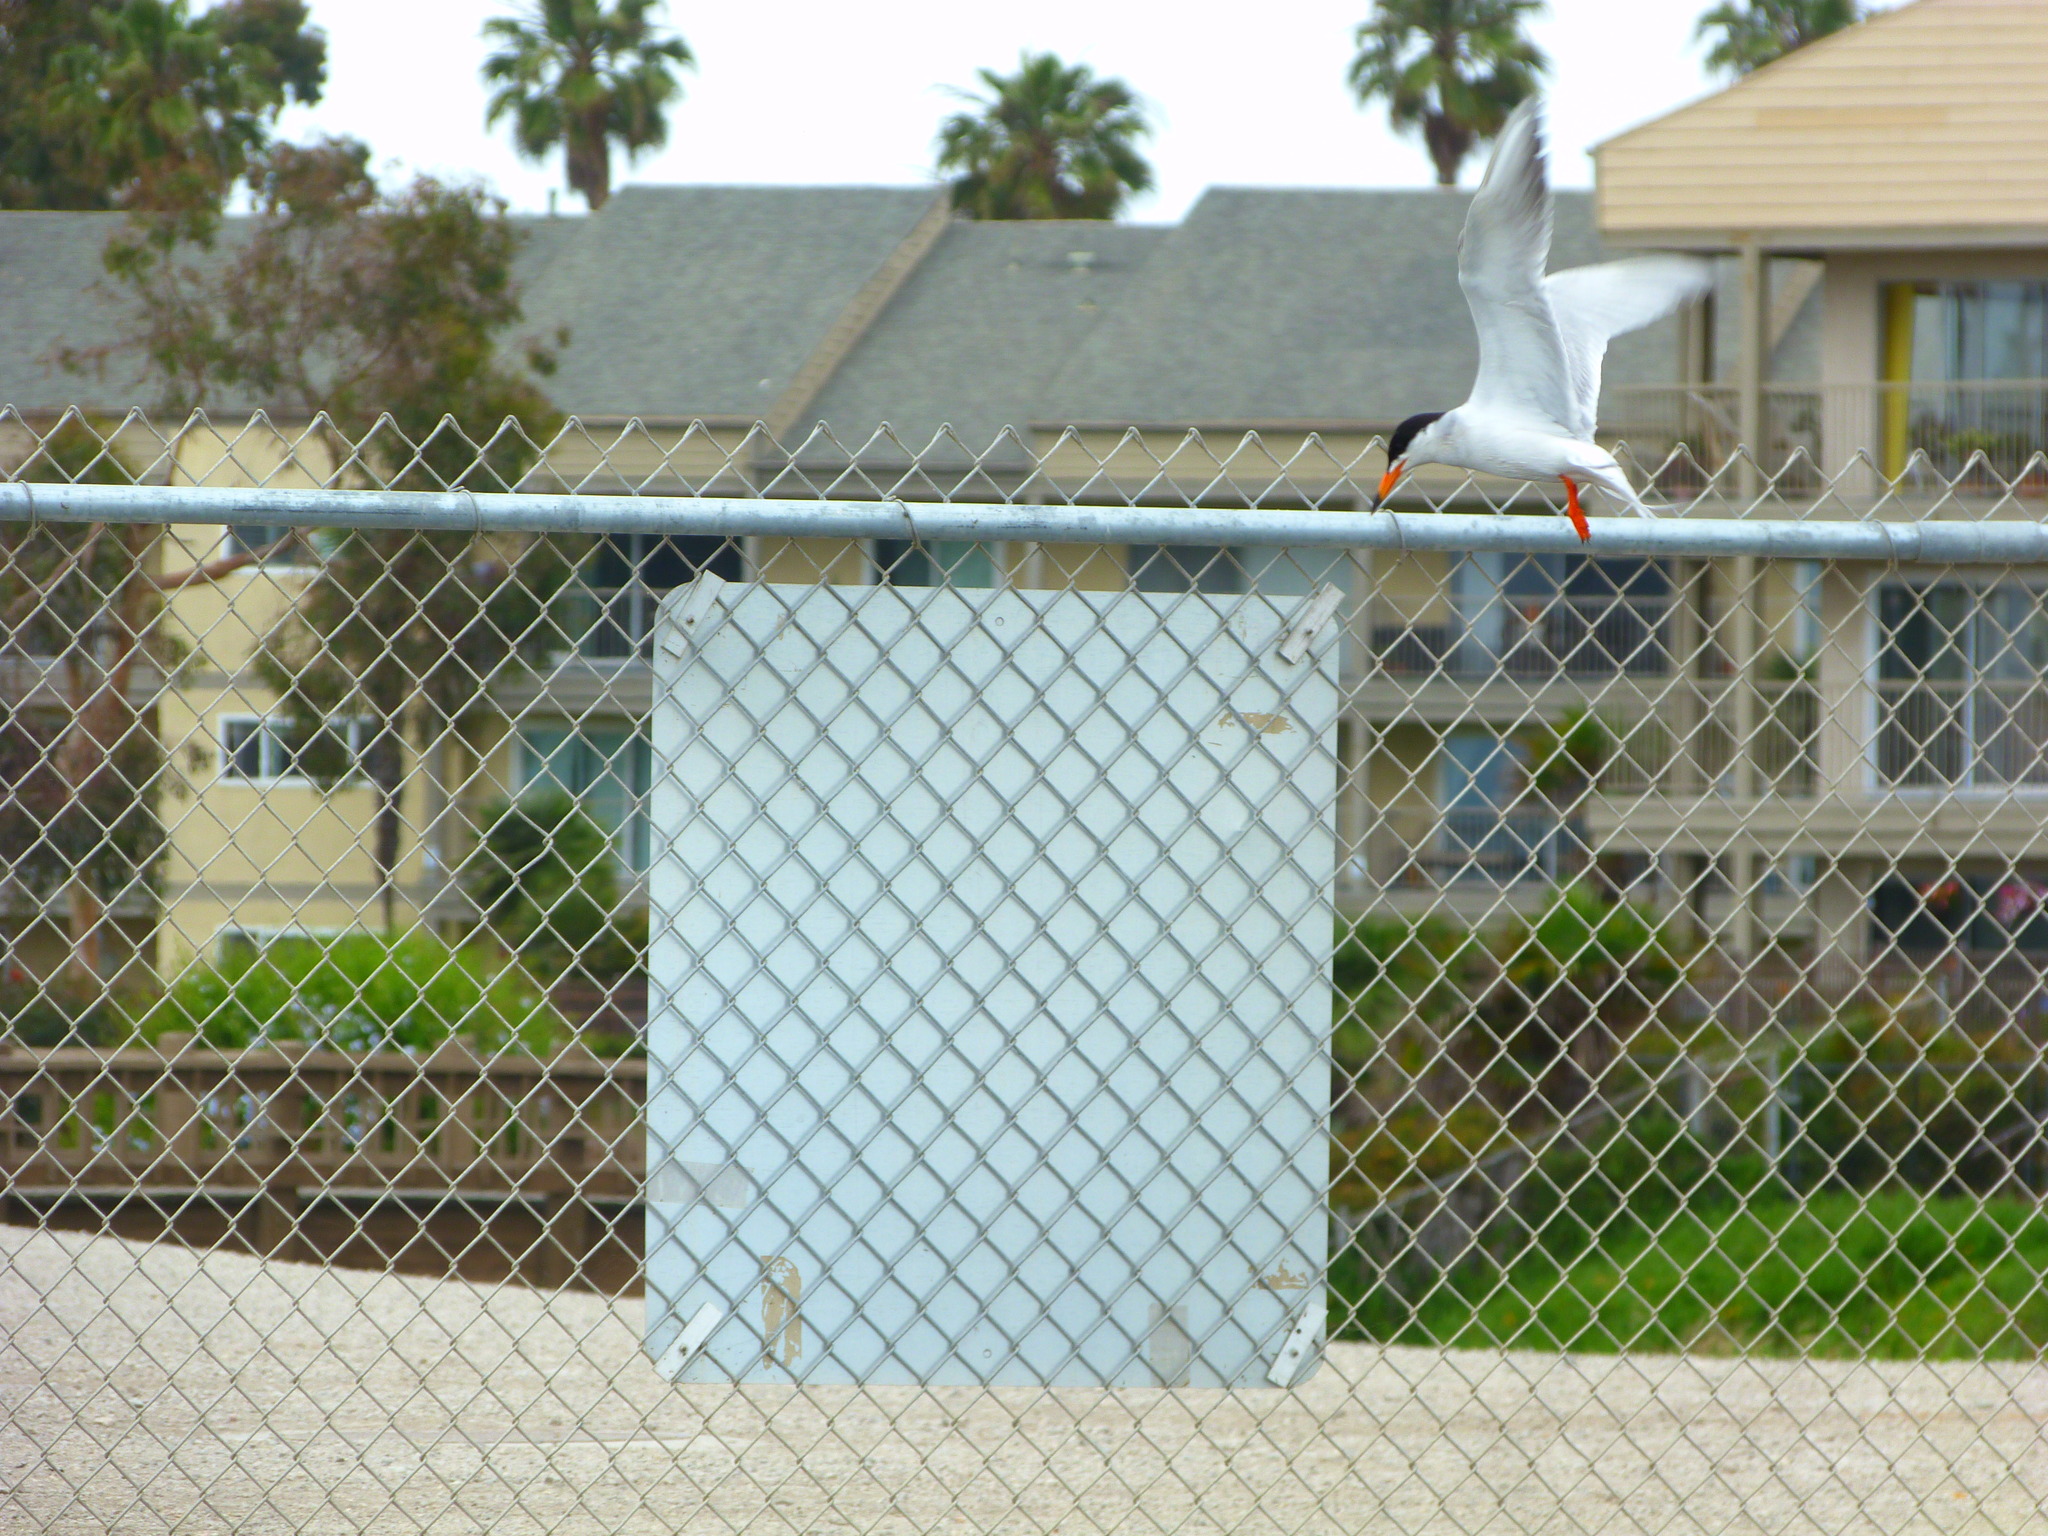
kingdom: Animalia
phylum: Chordata
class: Aves
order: Charadriiformes
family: Laridae
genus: Sterna
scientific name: Sterna forsteri
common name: Forster's tern
